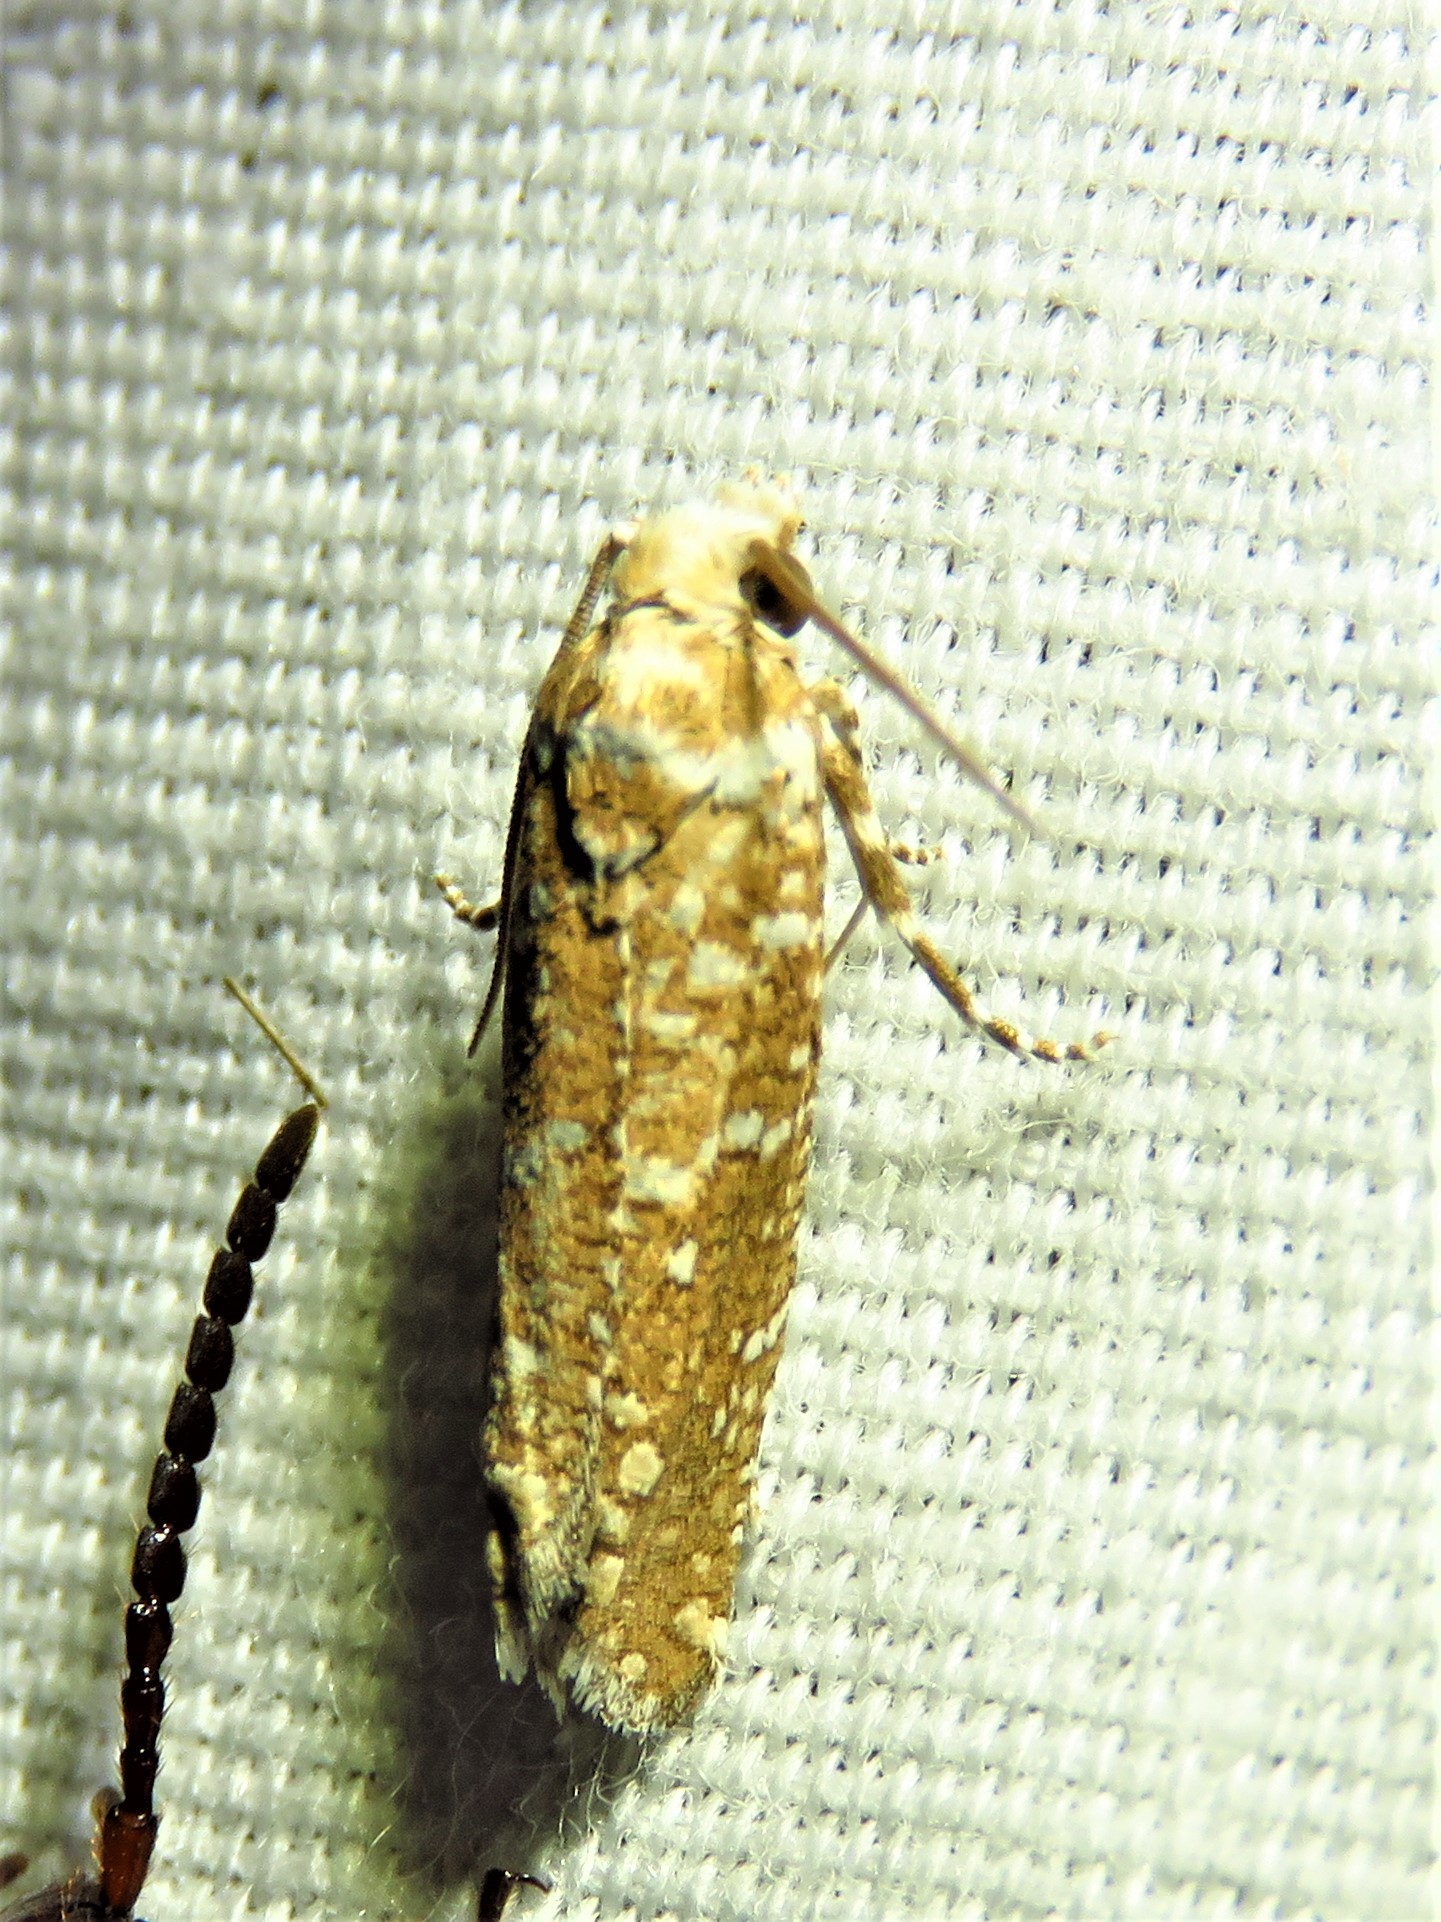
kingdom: Animalia
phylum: Arthropoda
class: Insecta
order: Lepidoptera
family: Tortricidae
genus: Pelochrista
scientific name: Pelochrista guttulana
